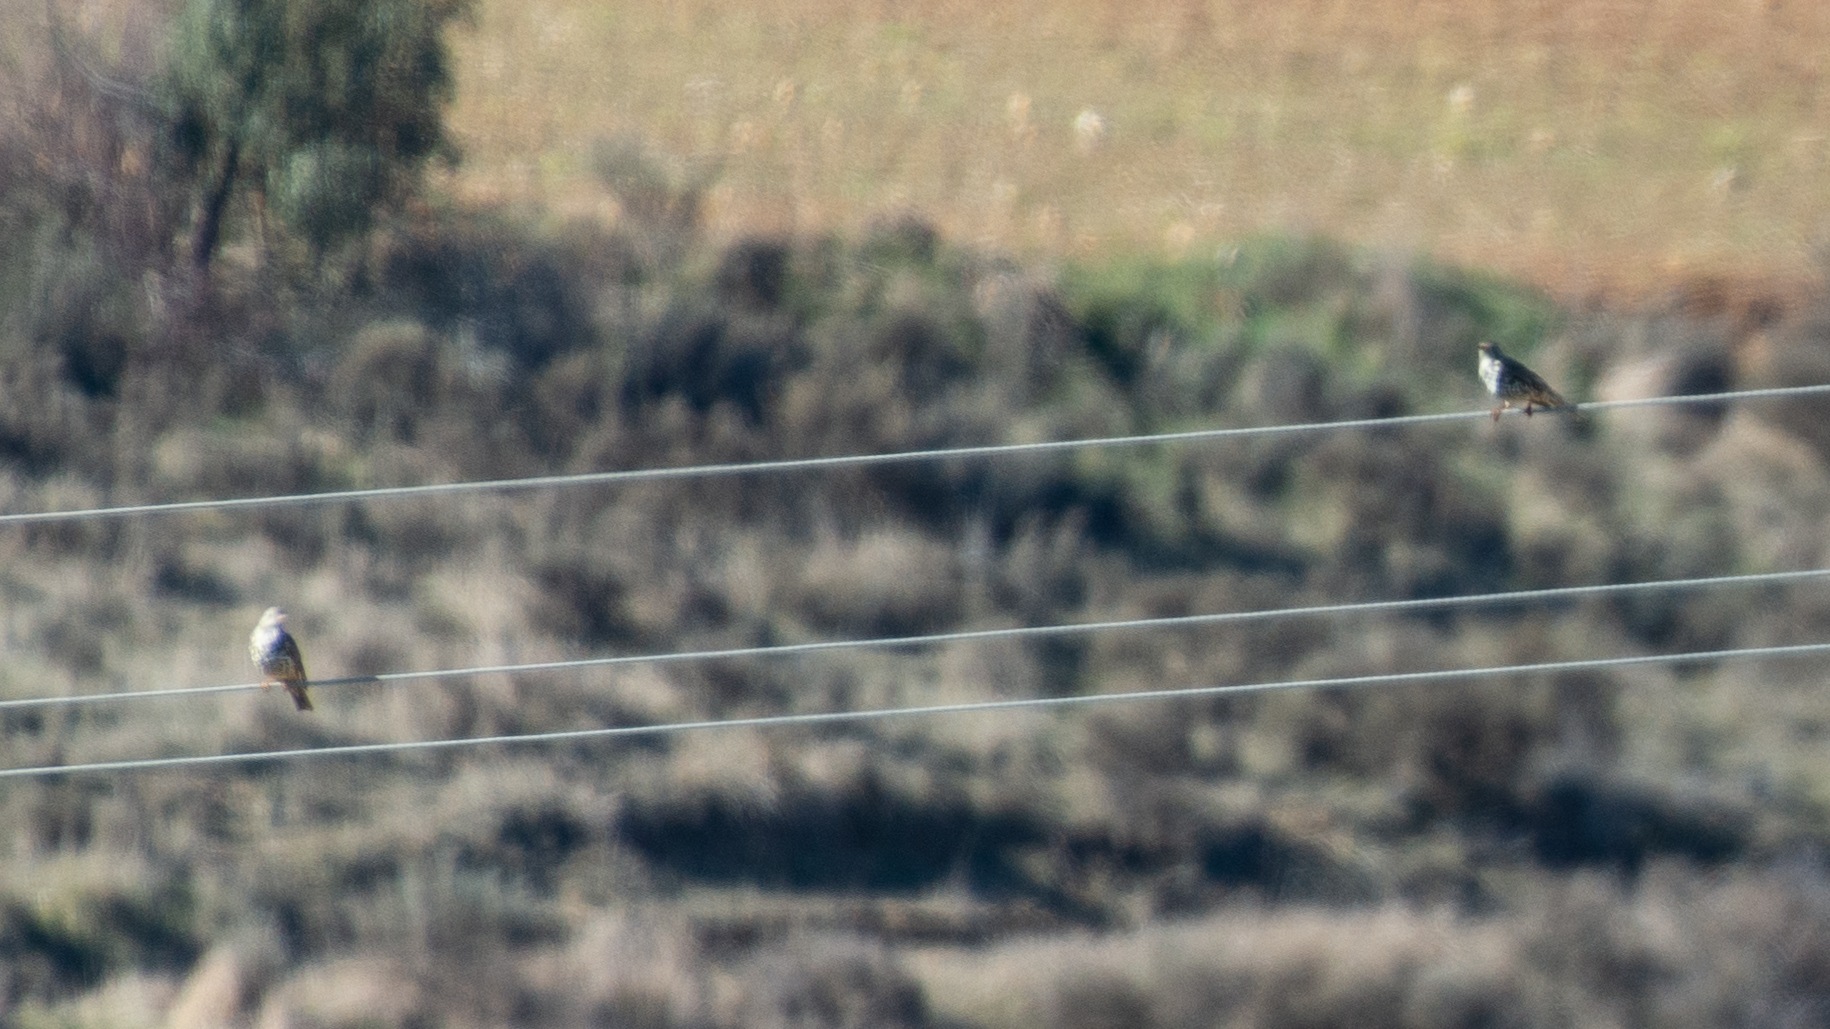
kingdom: Animalia
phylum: Chordata
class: Aves
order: Passeriformes
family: Turdidae
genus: Turdus
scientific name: Turdus viscivorus
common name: Mistle thrush
